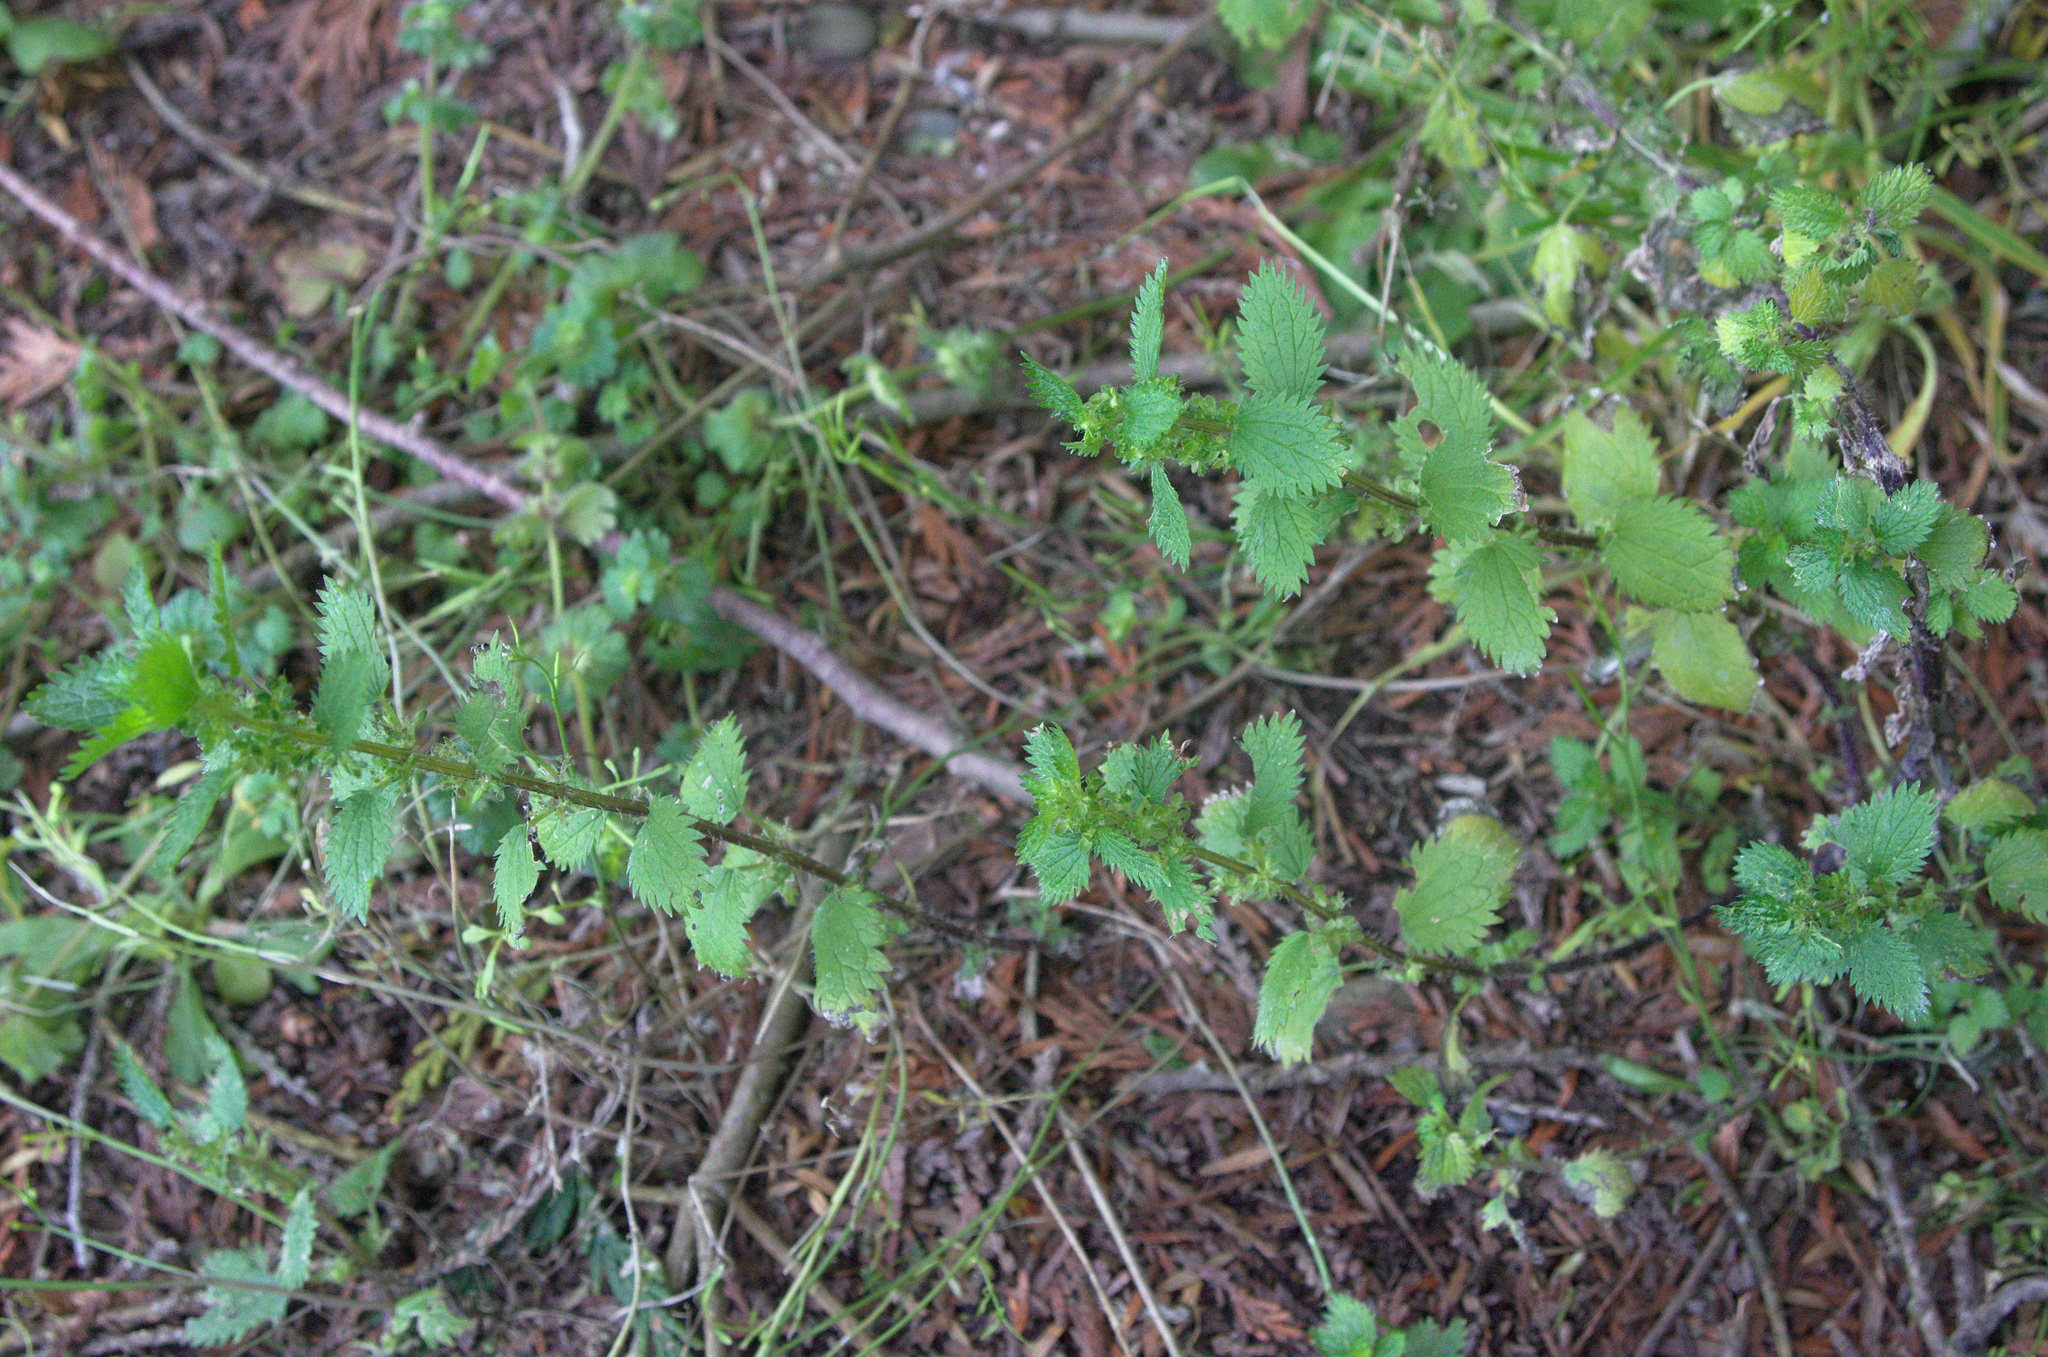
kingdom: Plantae
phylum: Tracheophyta
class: Magnoliopsida
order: Rosales
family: Urticaceae
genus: Urtica
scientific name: Urtica urens
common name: Dwarf nettle
